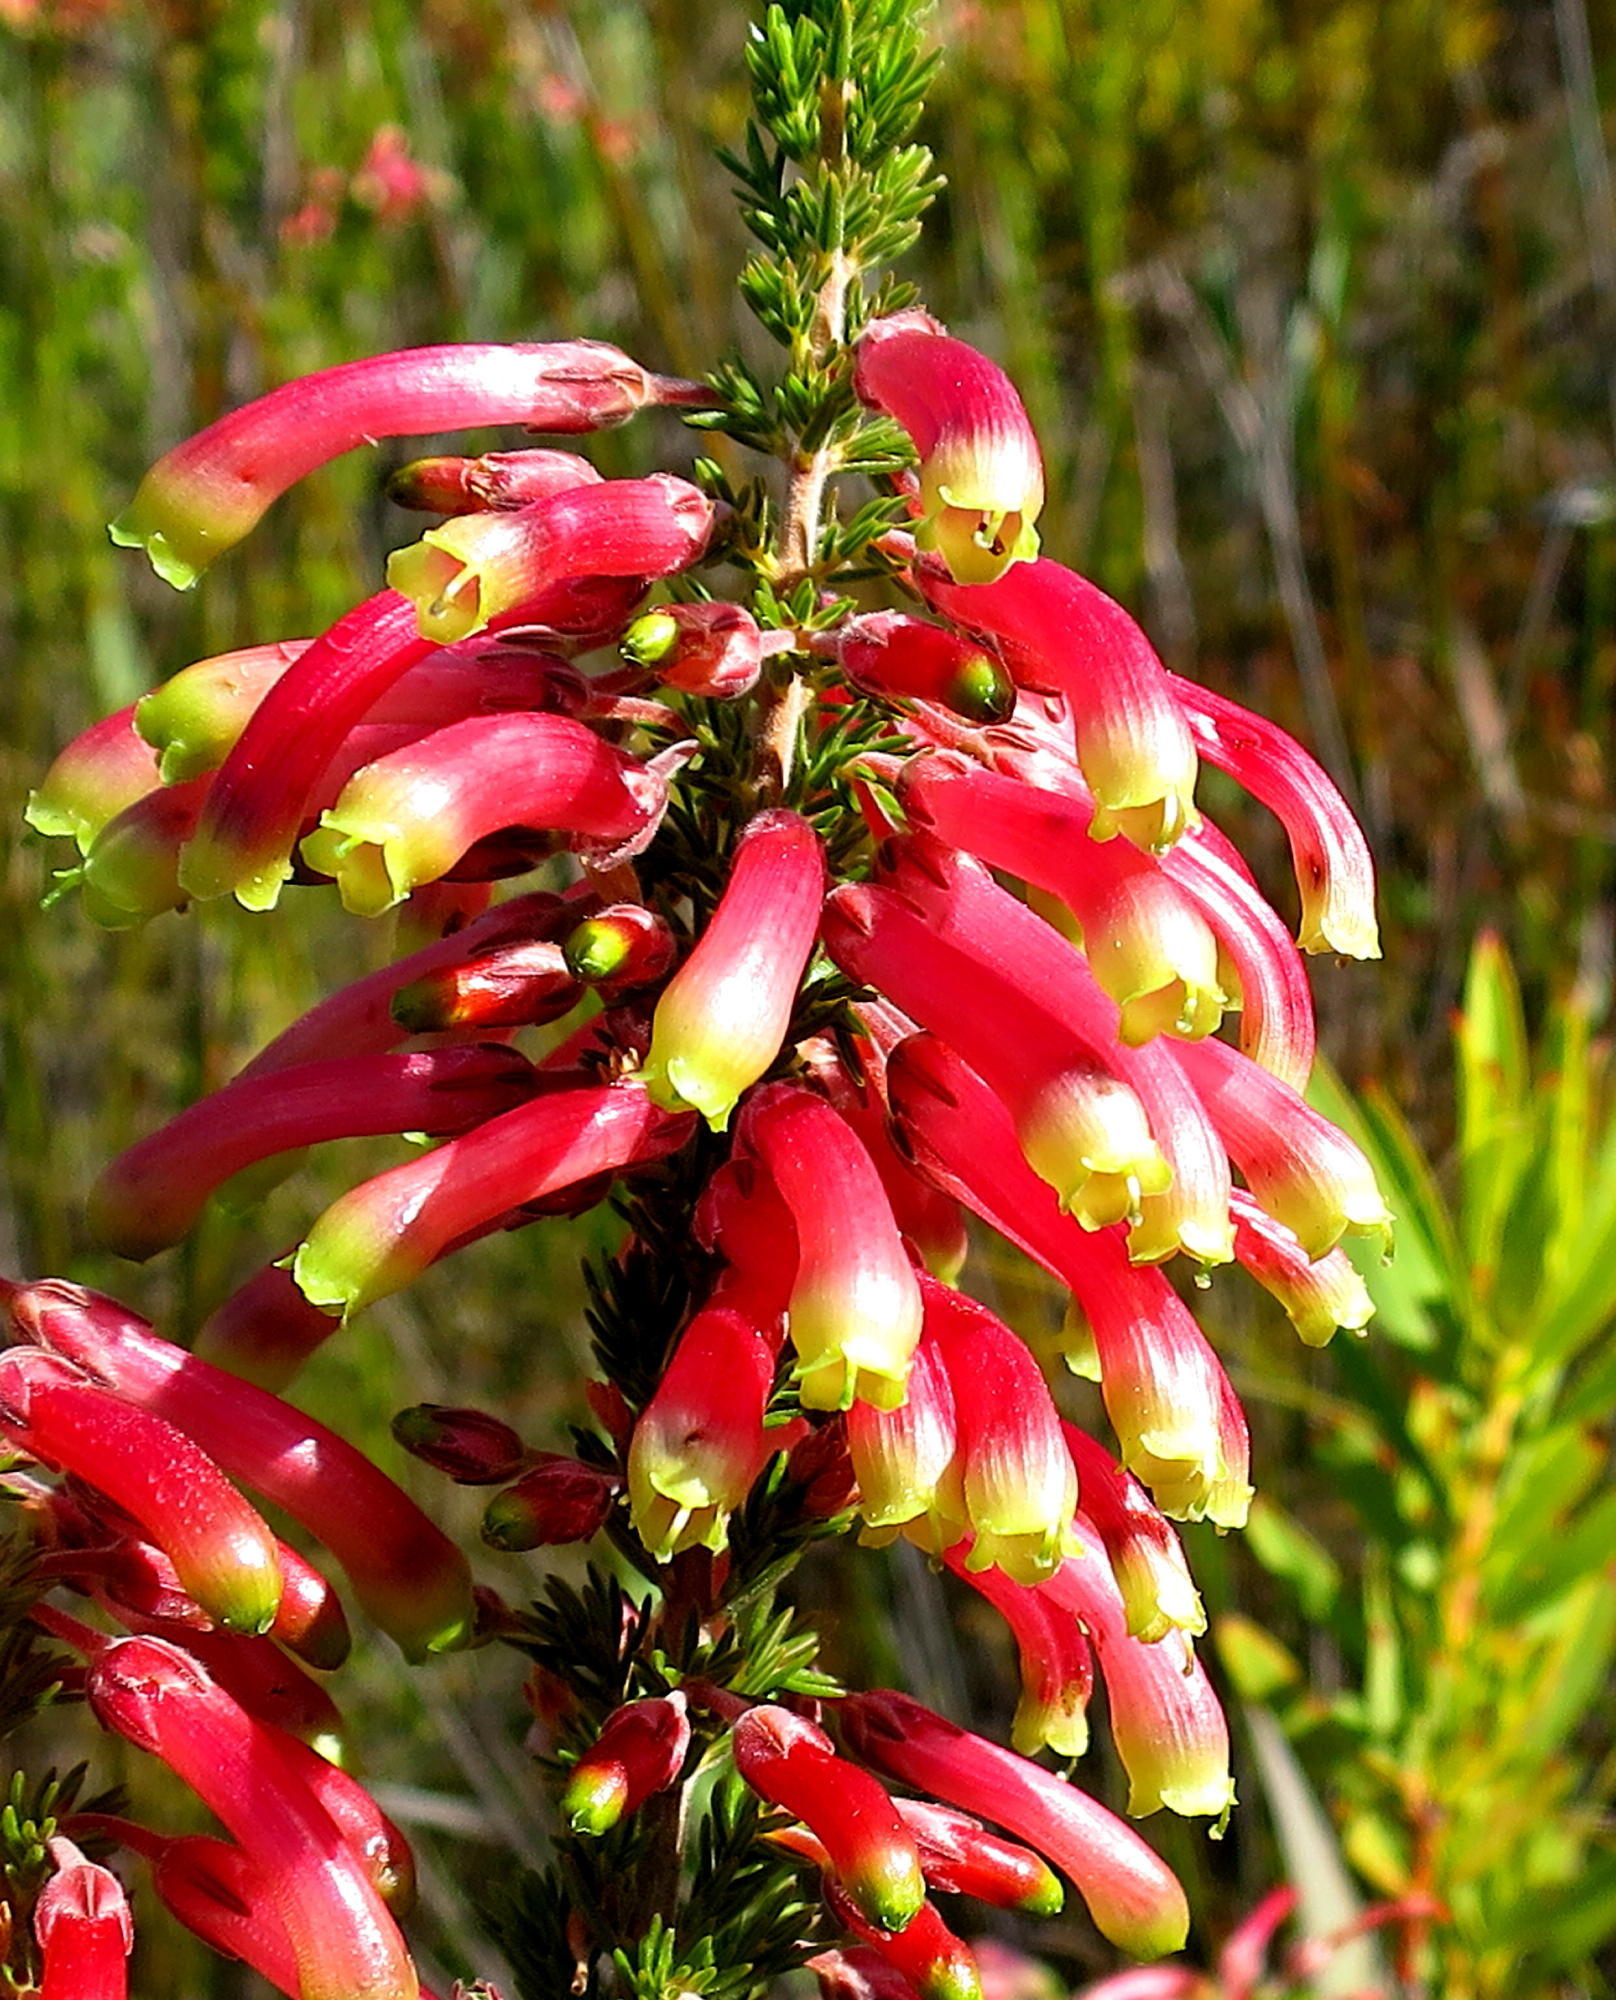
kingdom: Plantae
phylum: Tracheophyta
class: Magnoliopsida
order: Ericales
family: Ericaceae
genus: Erica
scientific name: Erica discolor
